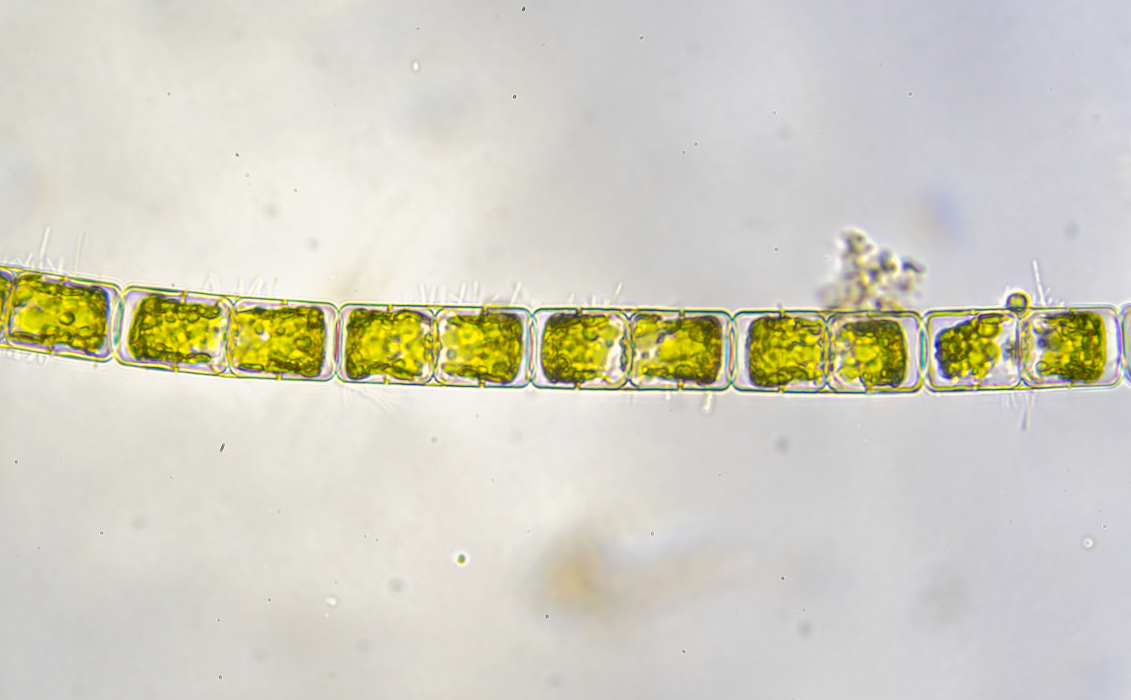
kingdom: Chromista
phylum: Ochrophyta
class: Bacillariophyceae
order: Melosirales
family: Melosiraceae
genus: Melosira
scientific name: Melosira varians
